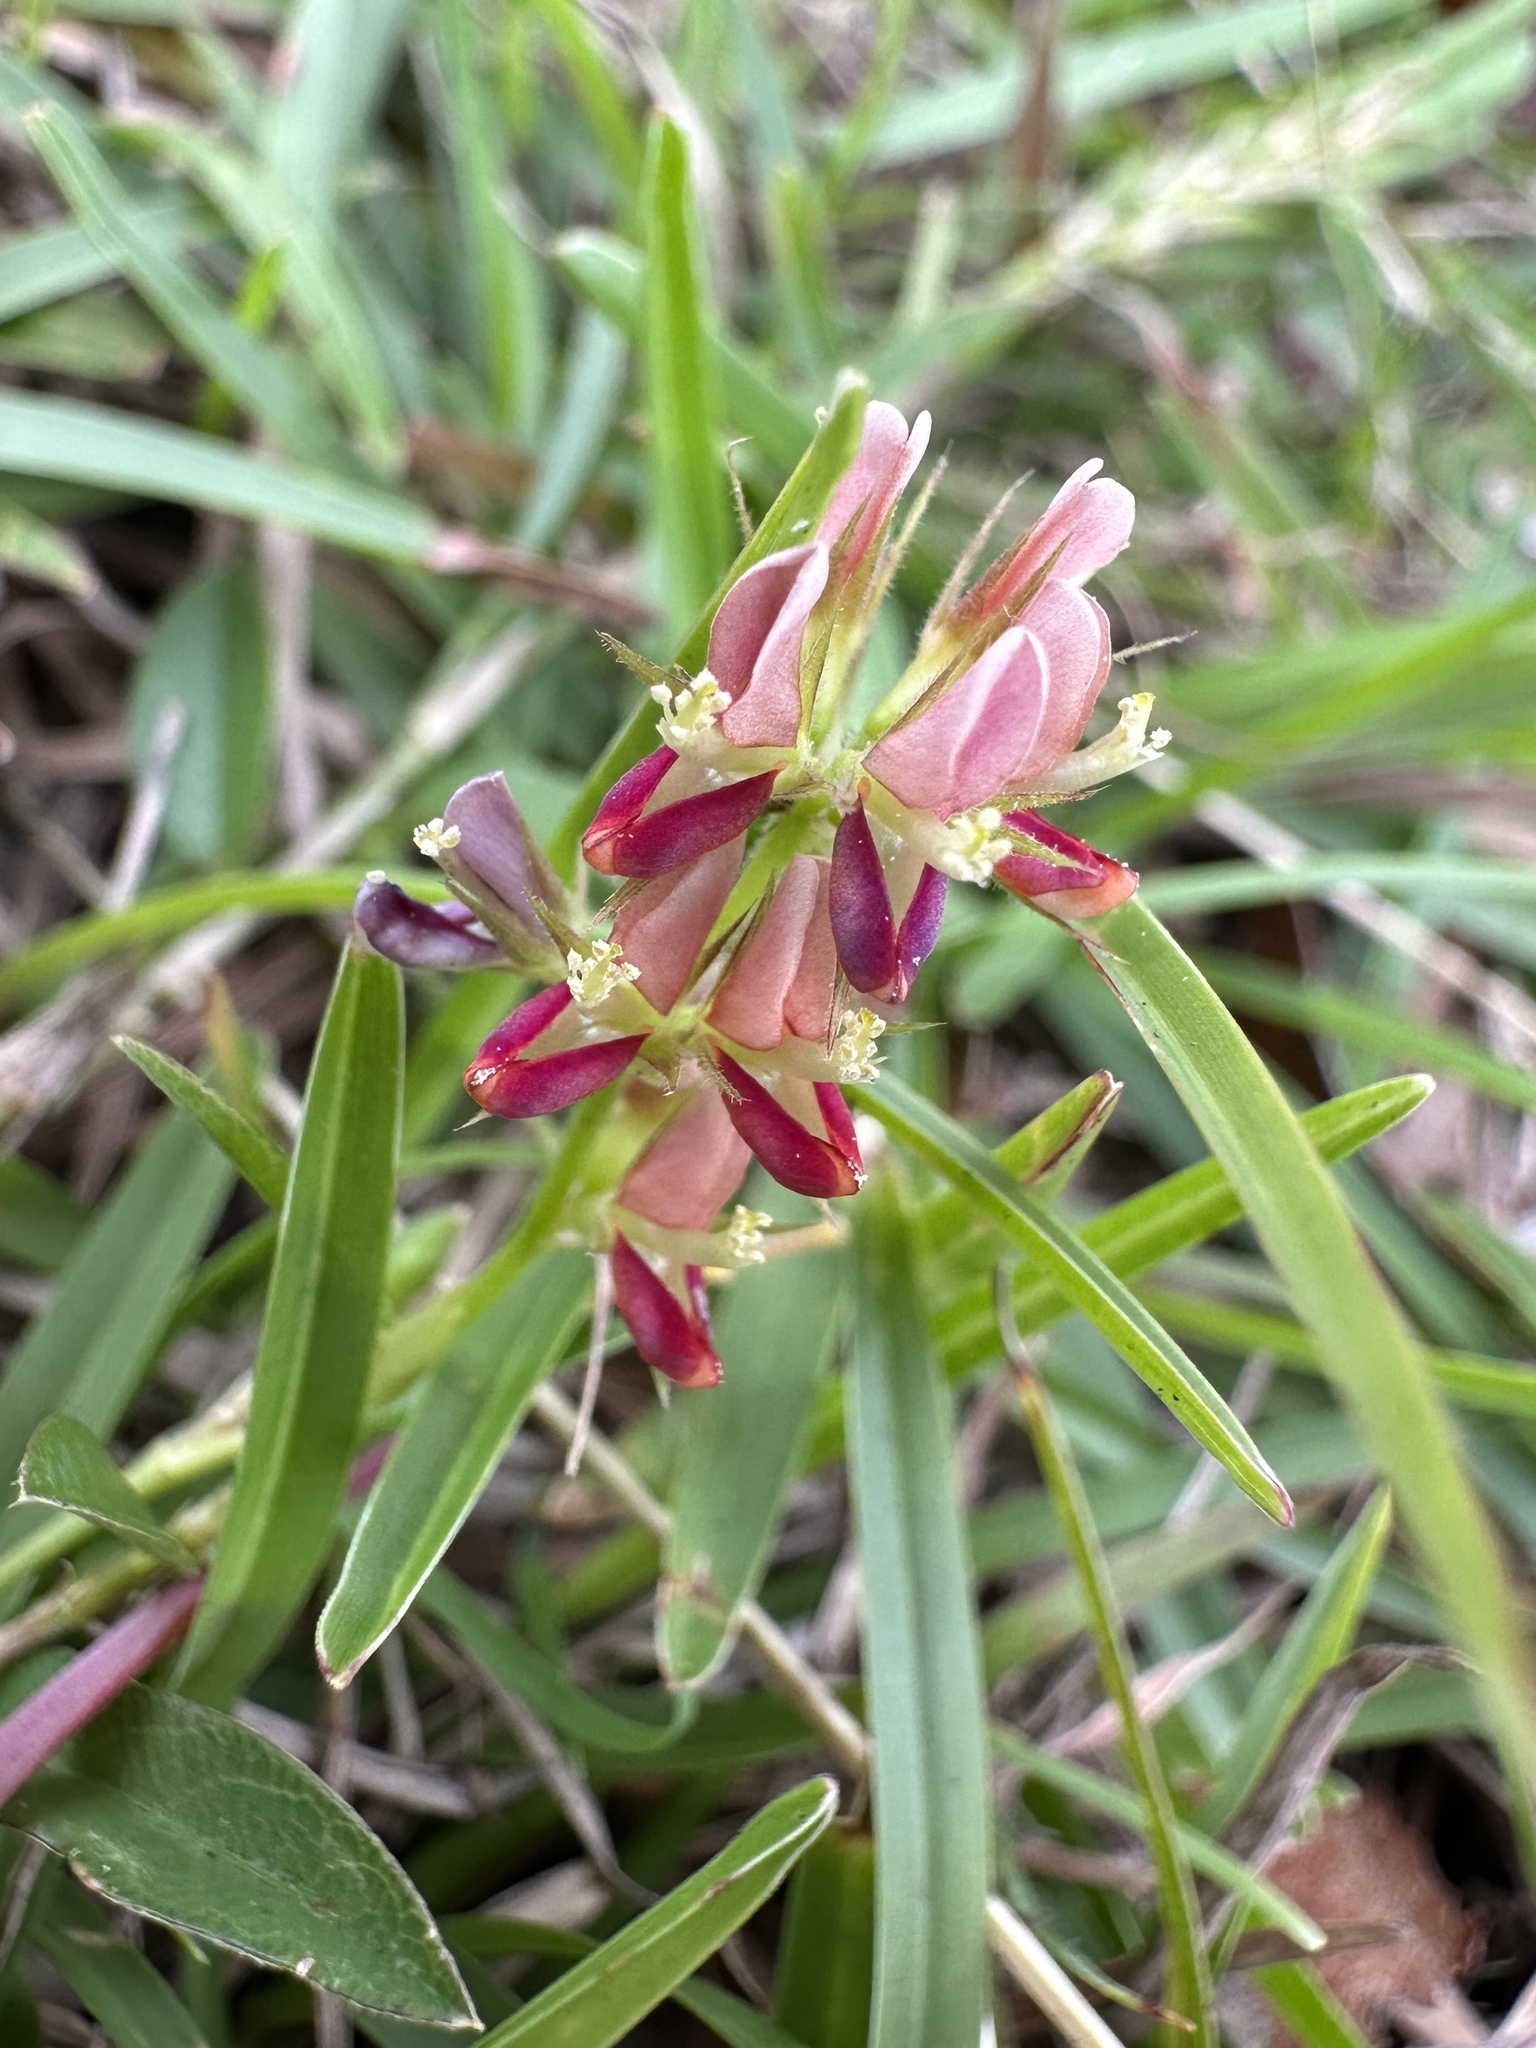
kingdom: Plantae
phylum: Tracheophyta
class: Magnoliopsida
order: Fabales
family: Fabaceae
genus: Alysicarpus
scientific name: Alysicarpus vaginalis
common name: White moneywort
